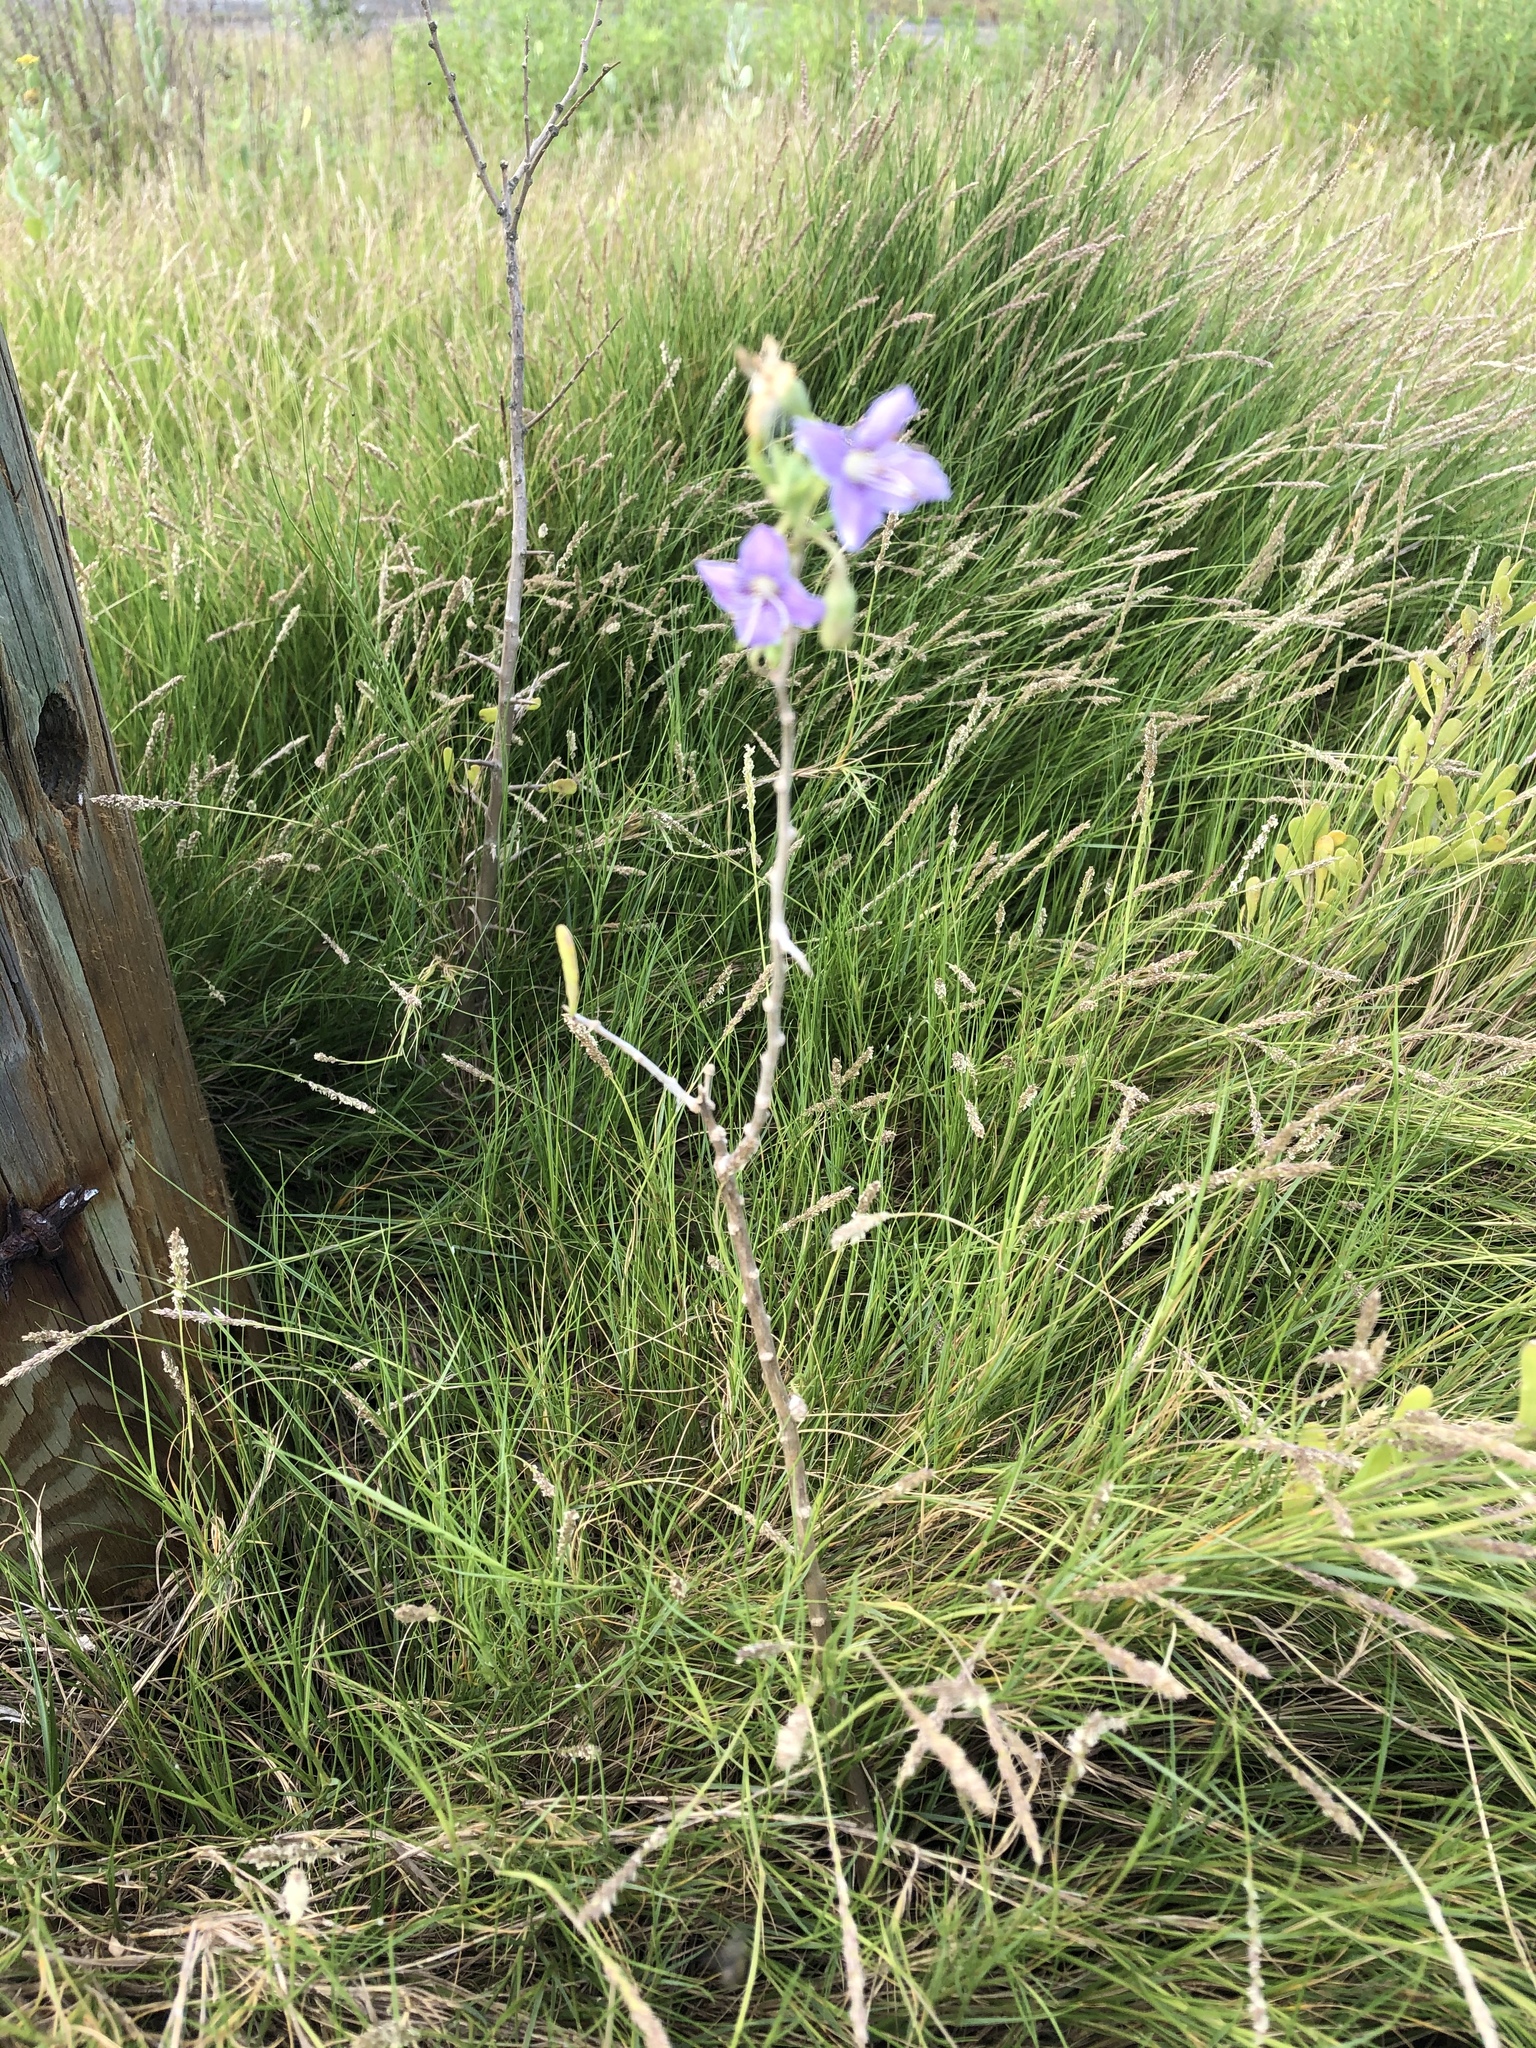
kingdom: Plantae
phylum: Tracheophyta
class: Magnoliopsida
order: Solanales
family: Solanaceae
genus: Lycium
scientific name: Lycium carolinianum
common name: Christmasberry
